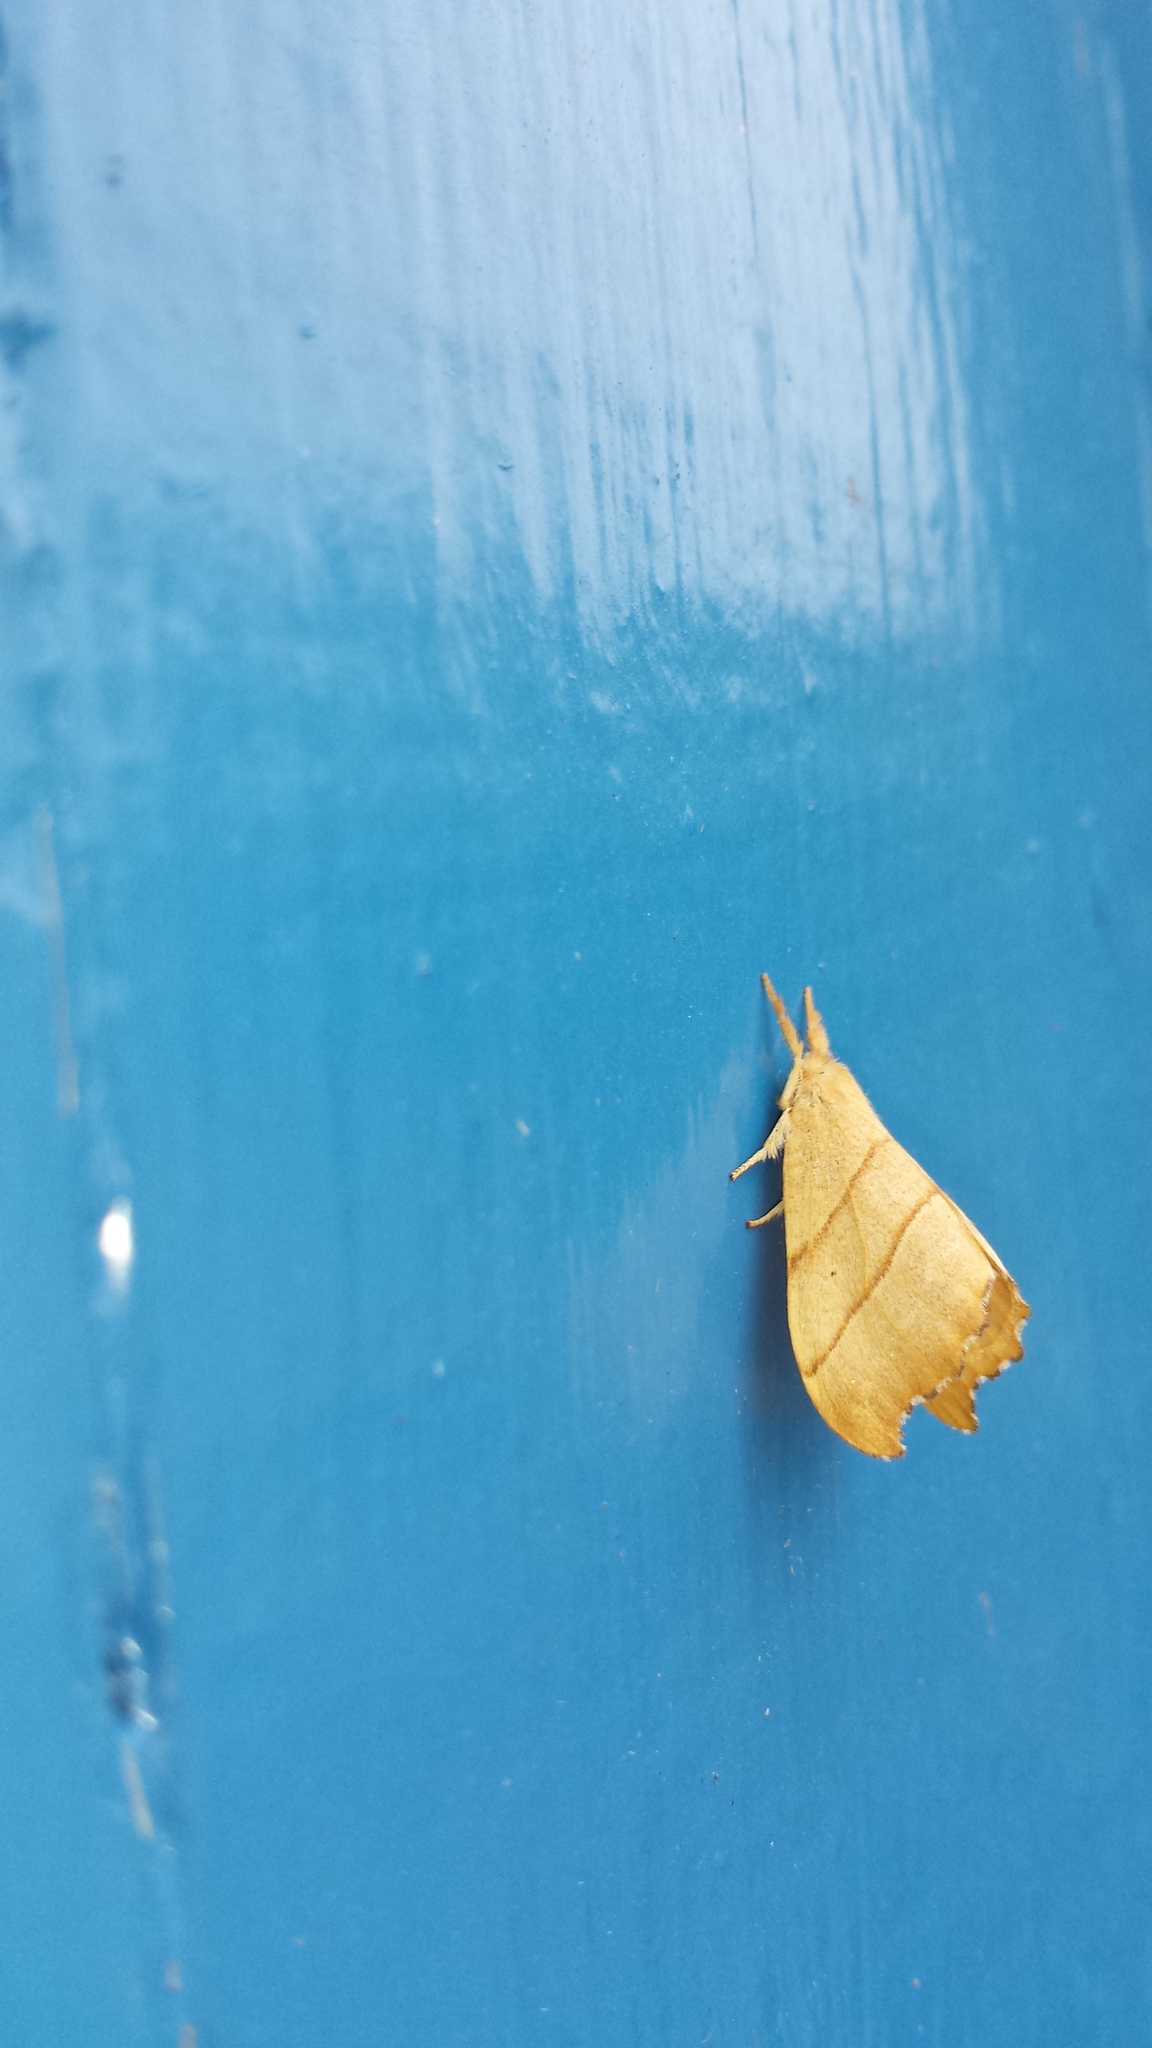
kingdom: Animalia
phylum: Arthropoda
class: Insecta
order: Lepidoptera
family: Drepanidae
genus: Falcaria
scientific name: Falcaria bilineata
